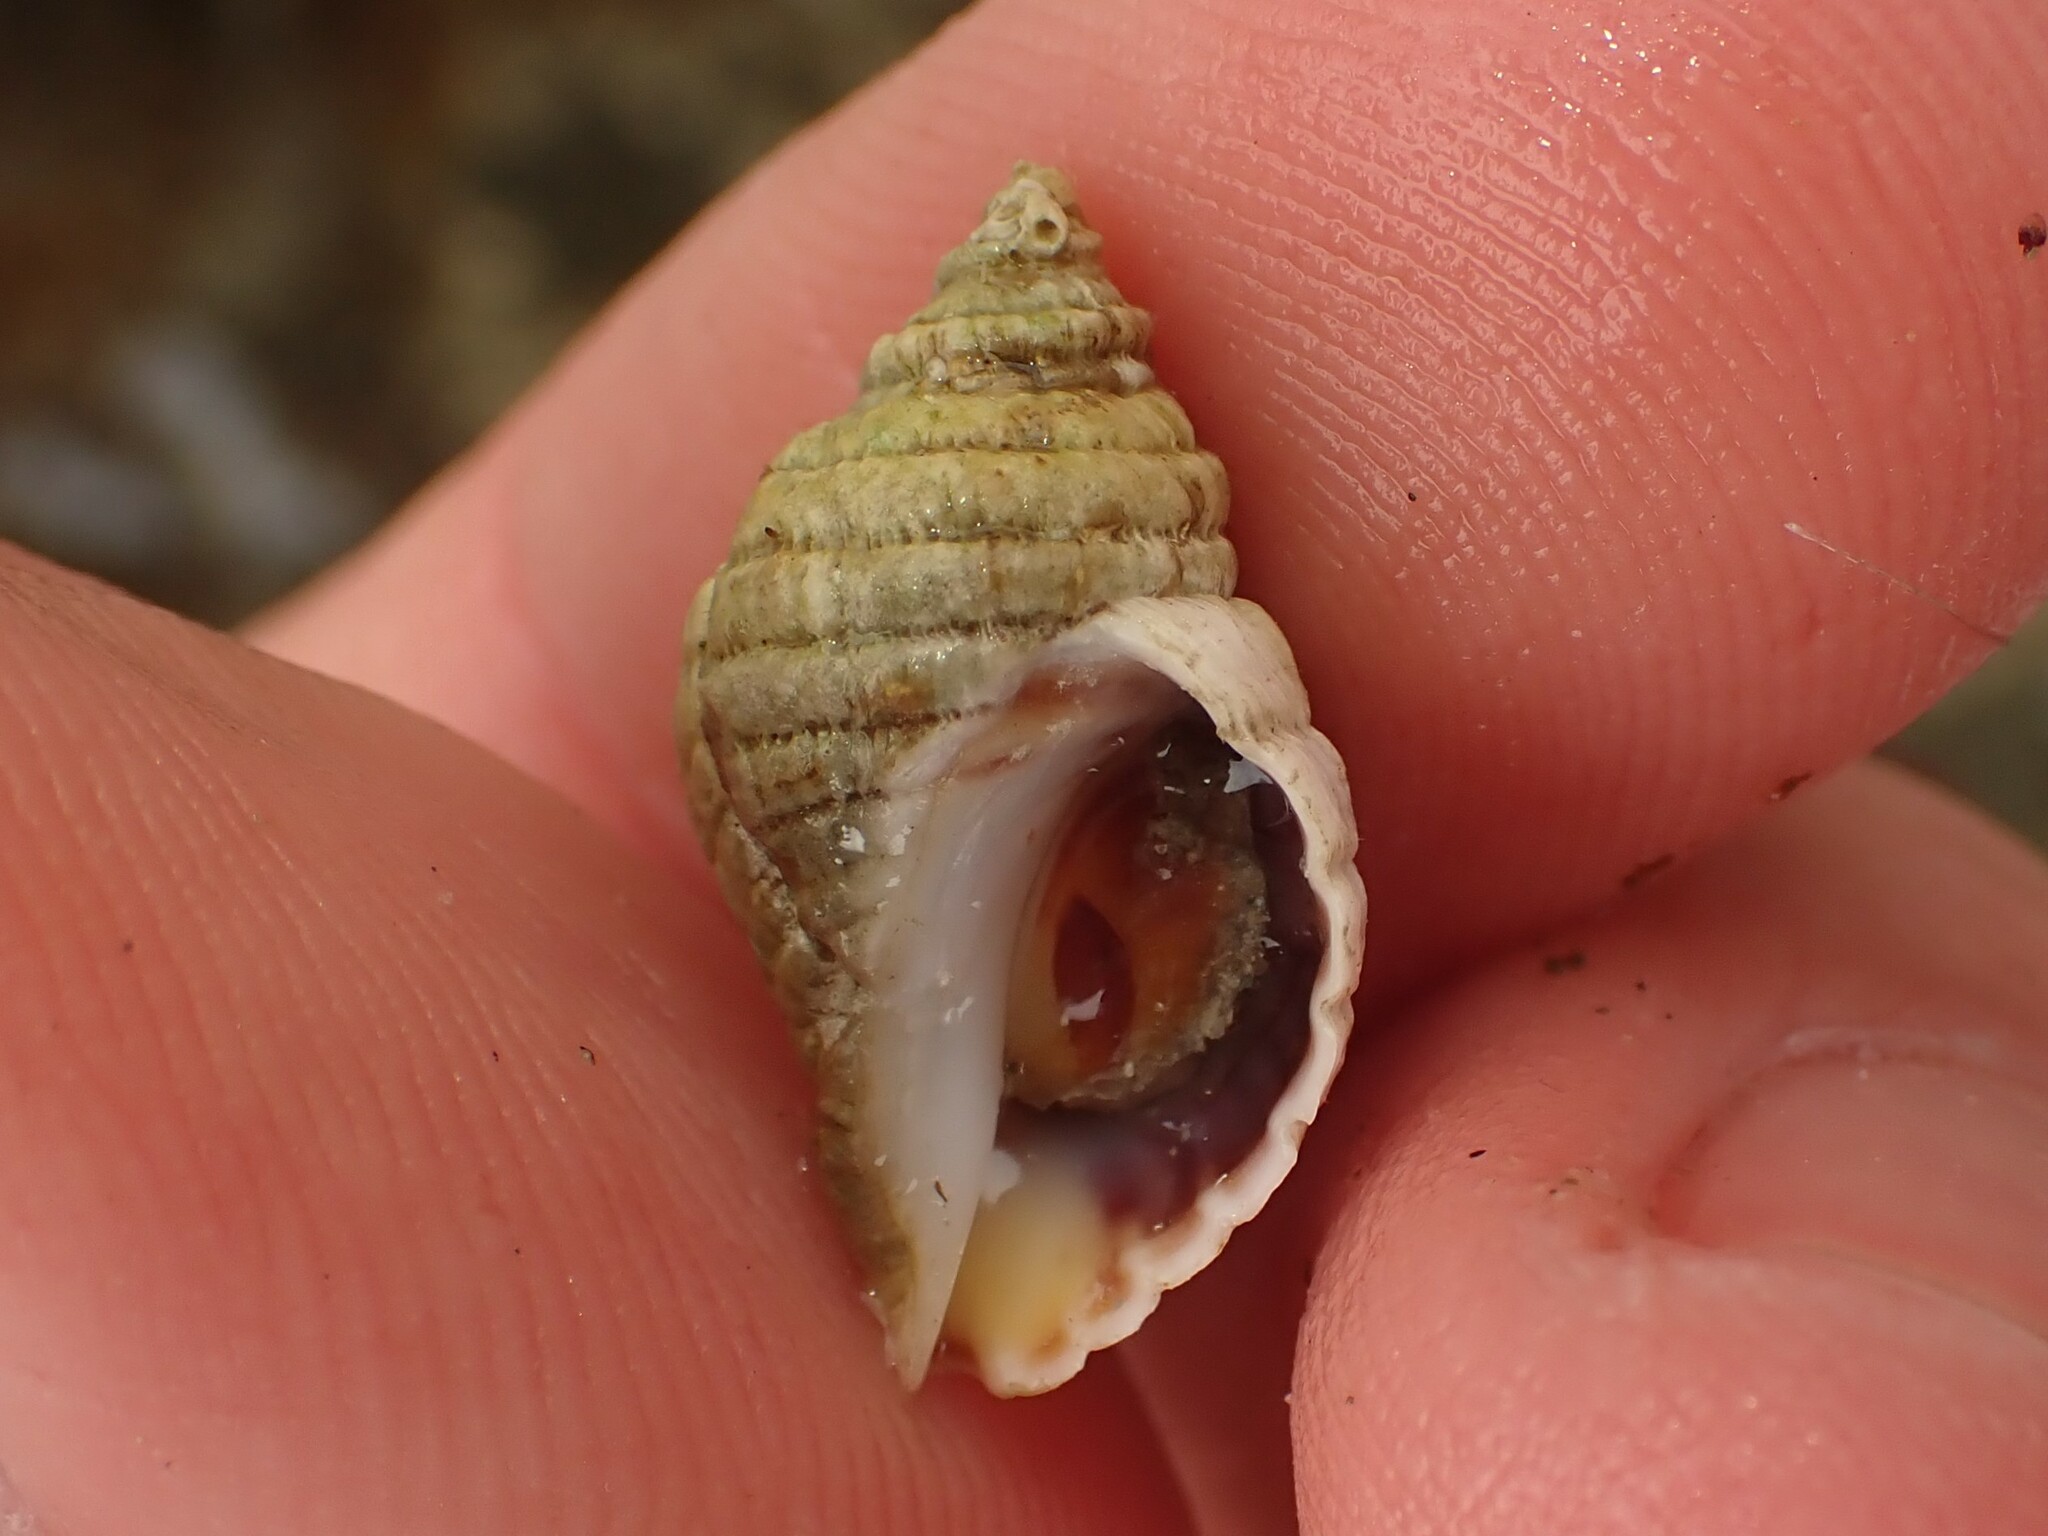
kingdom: Animalia
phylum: Mollusca
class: Gastropoda
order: Neogastropoda
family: Muricidae
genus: Haustrum
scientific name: Haustrum lacunosum
